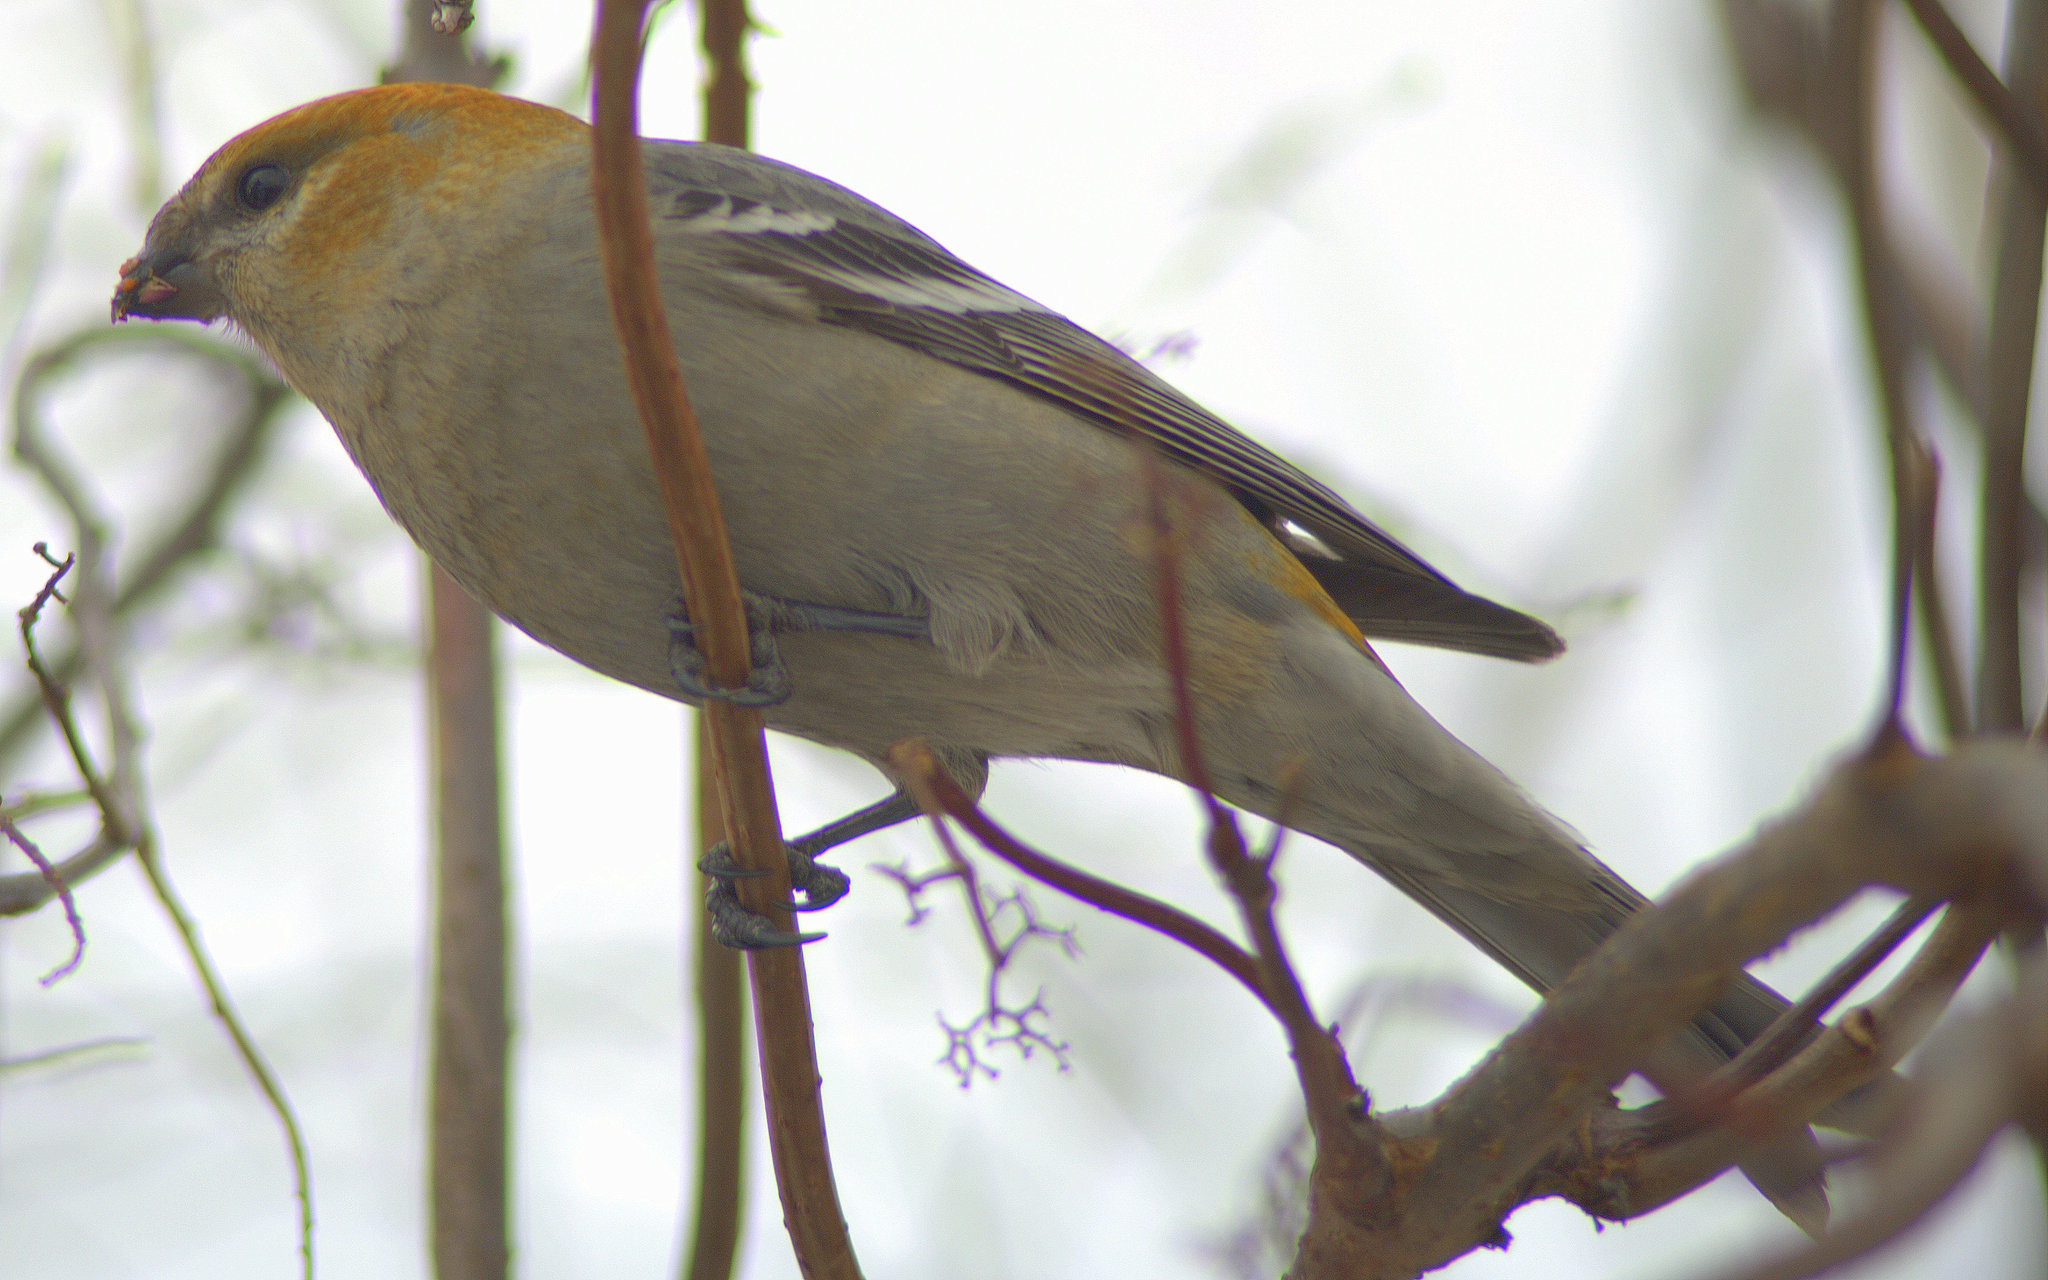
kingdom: Animalia
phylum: Chordata
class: Aves
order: Passeriformes
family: Fringillidae
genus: Pinicola
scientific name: Pinicola enucleator
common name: Pine grosbeak
